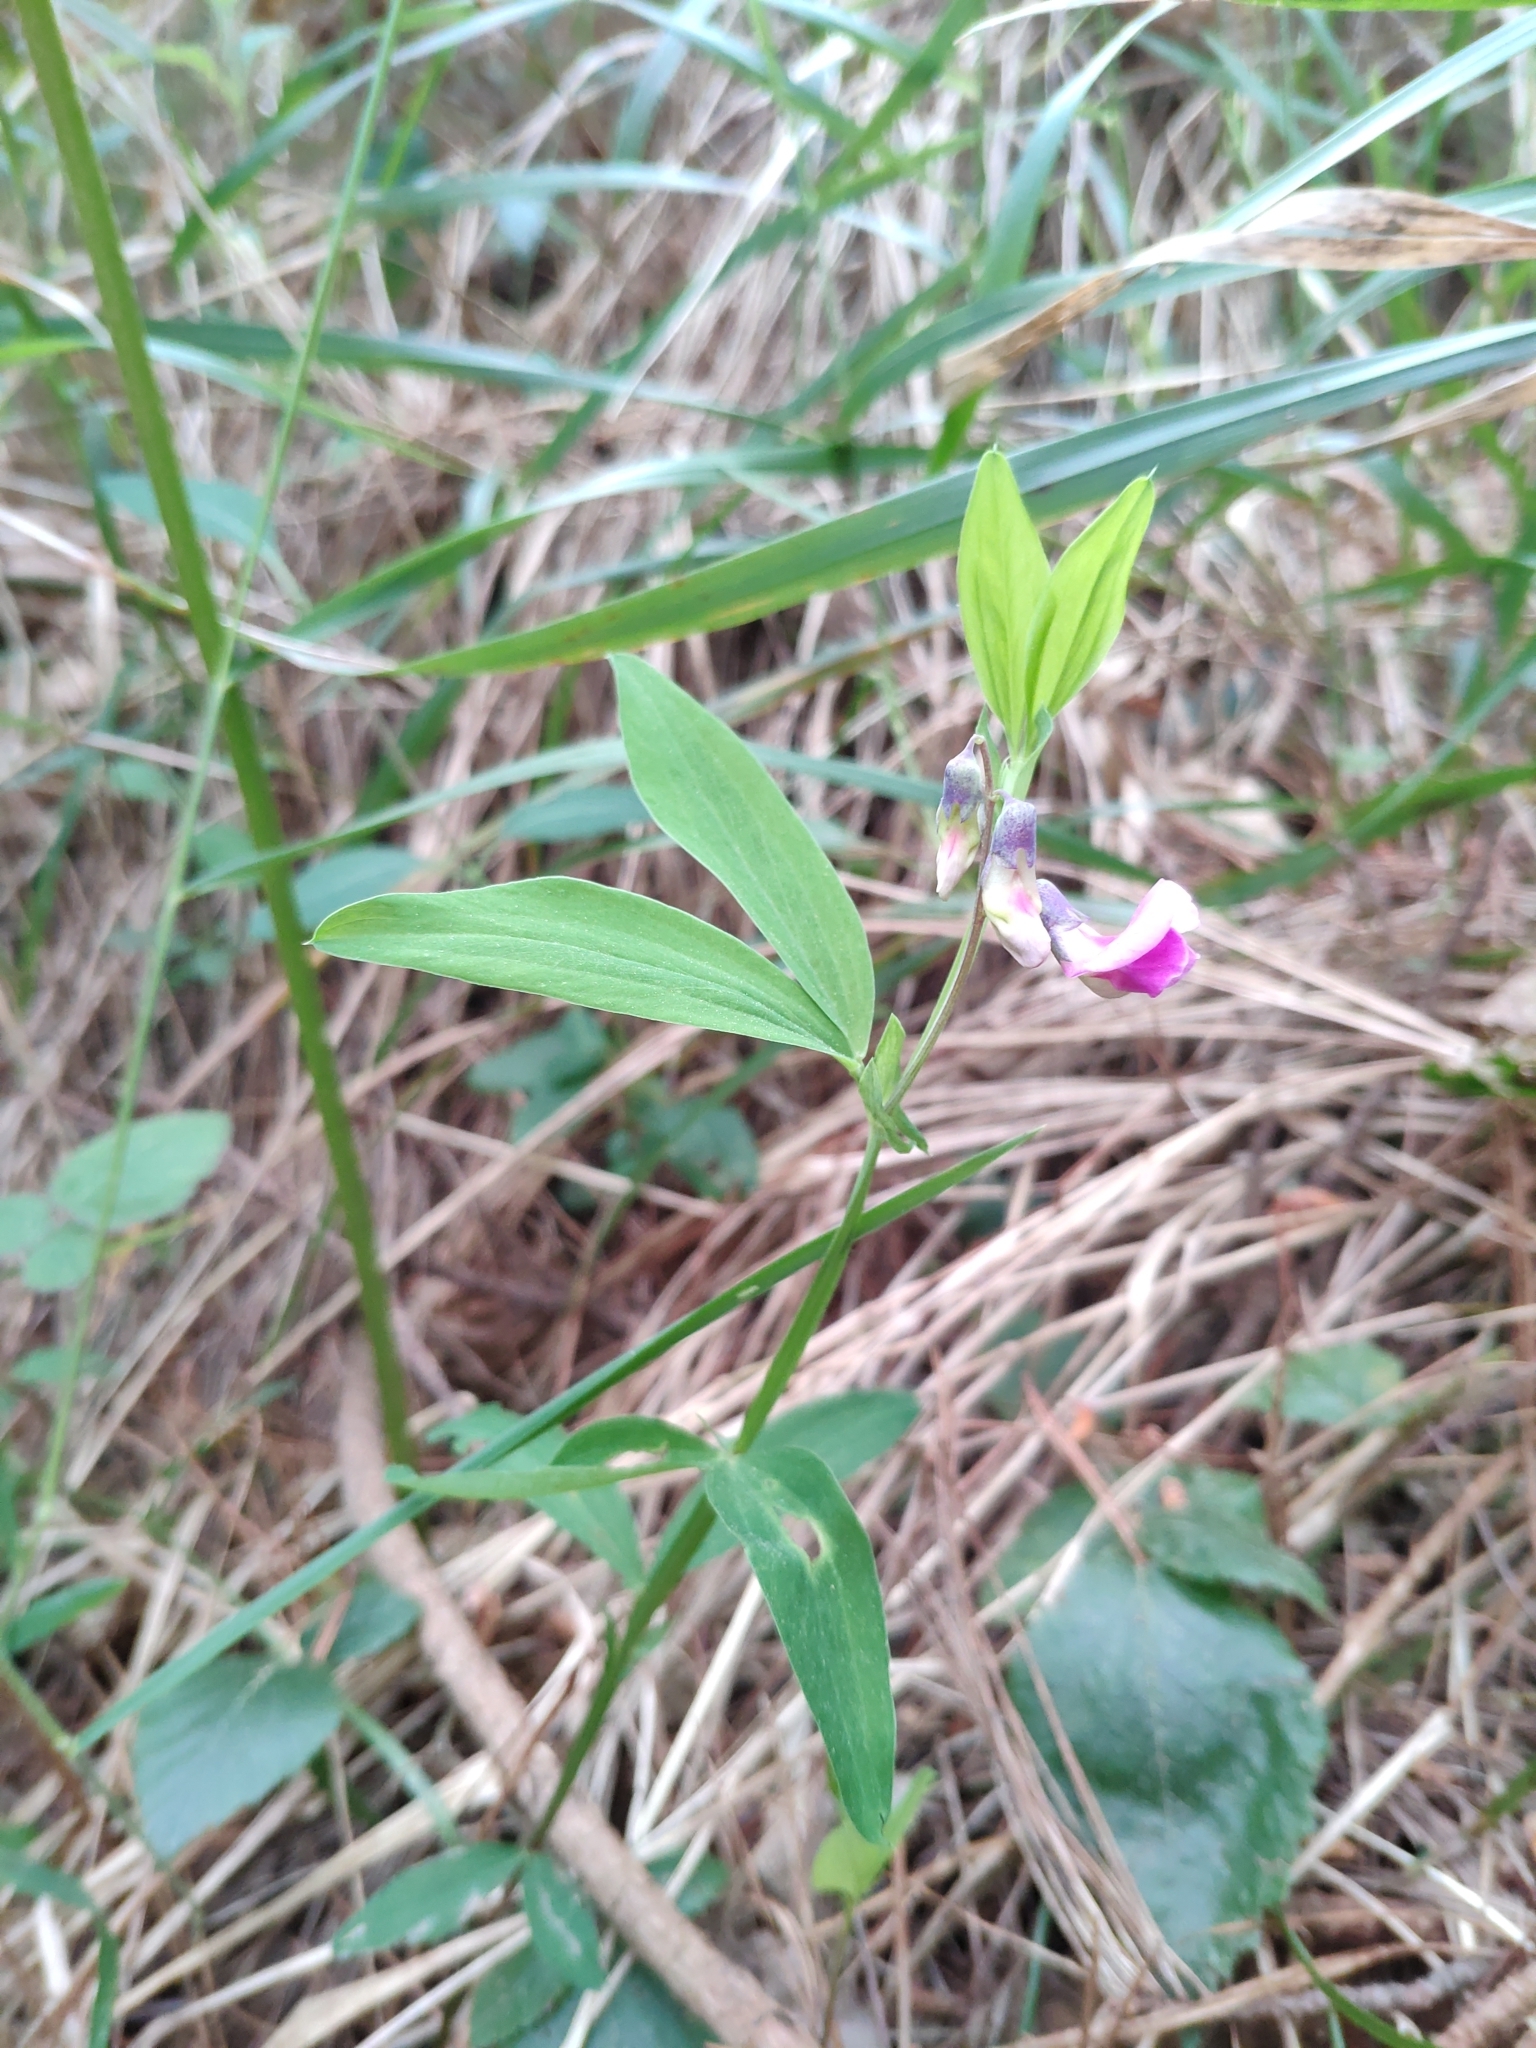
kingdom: Plantae
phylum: Tracheophyta
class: Magnoliopsida
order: Fabales
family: Fabaceae
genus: Lathyrus
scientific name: Lathyrus linifolius
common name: Bitter-vetch
